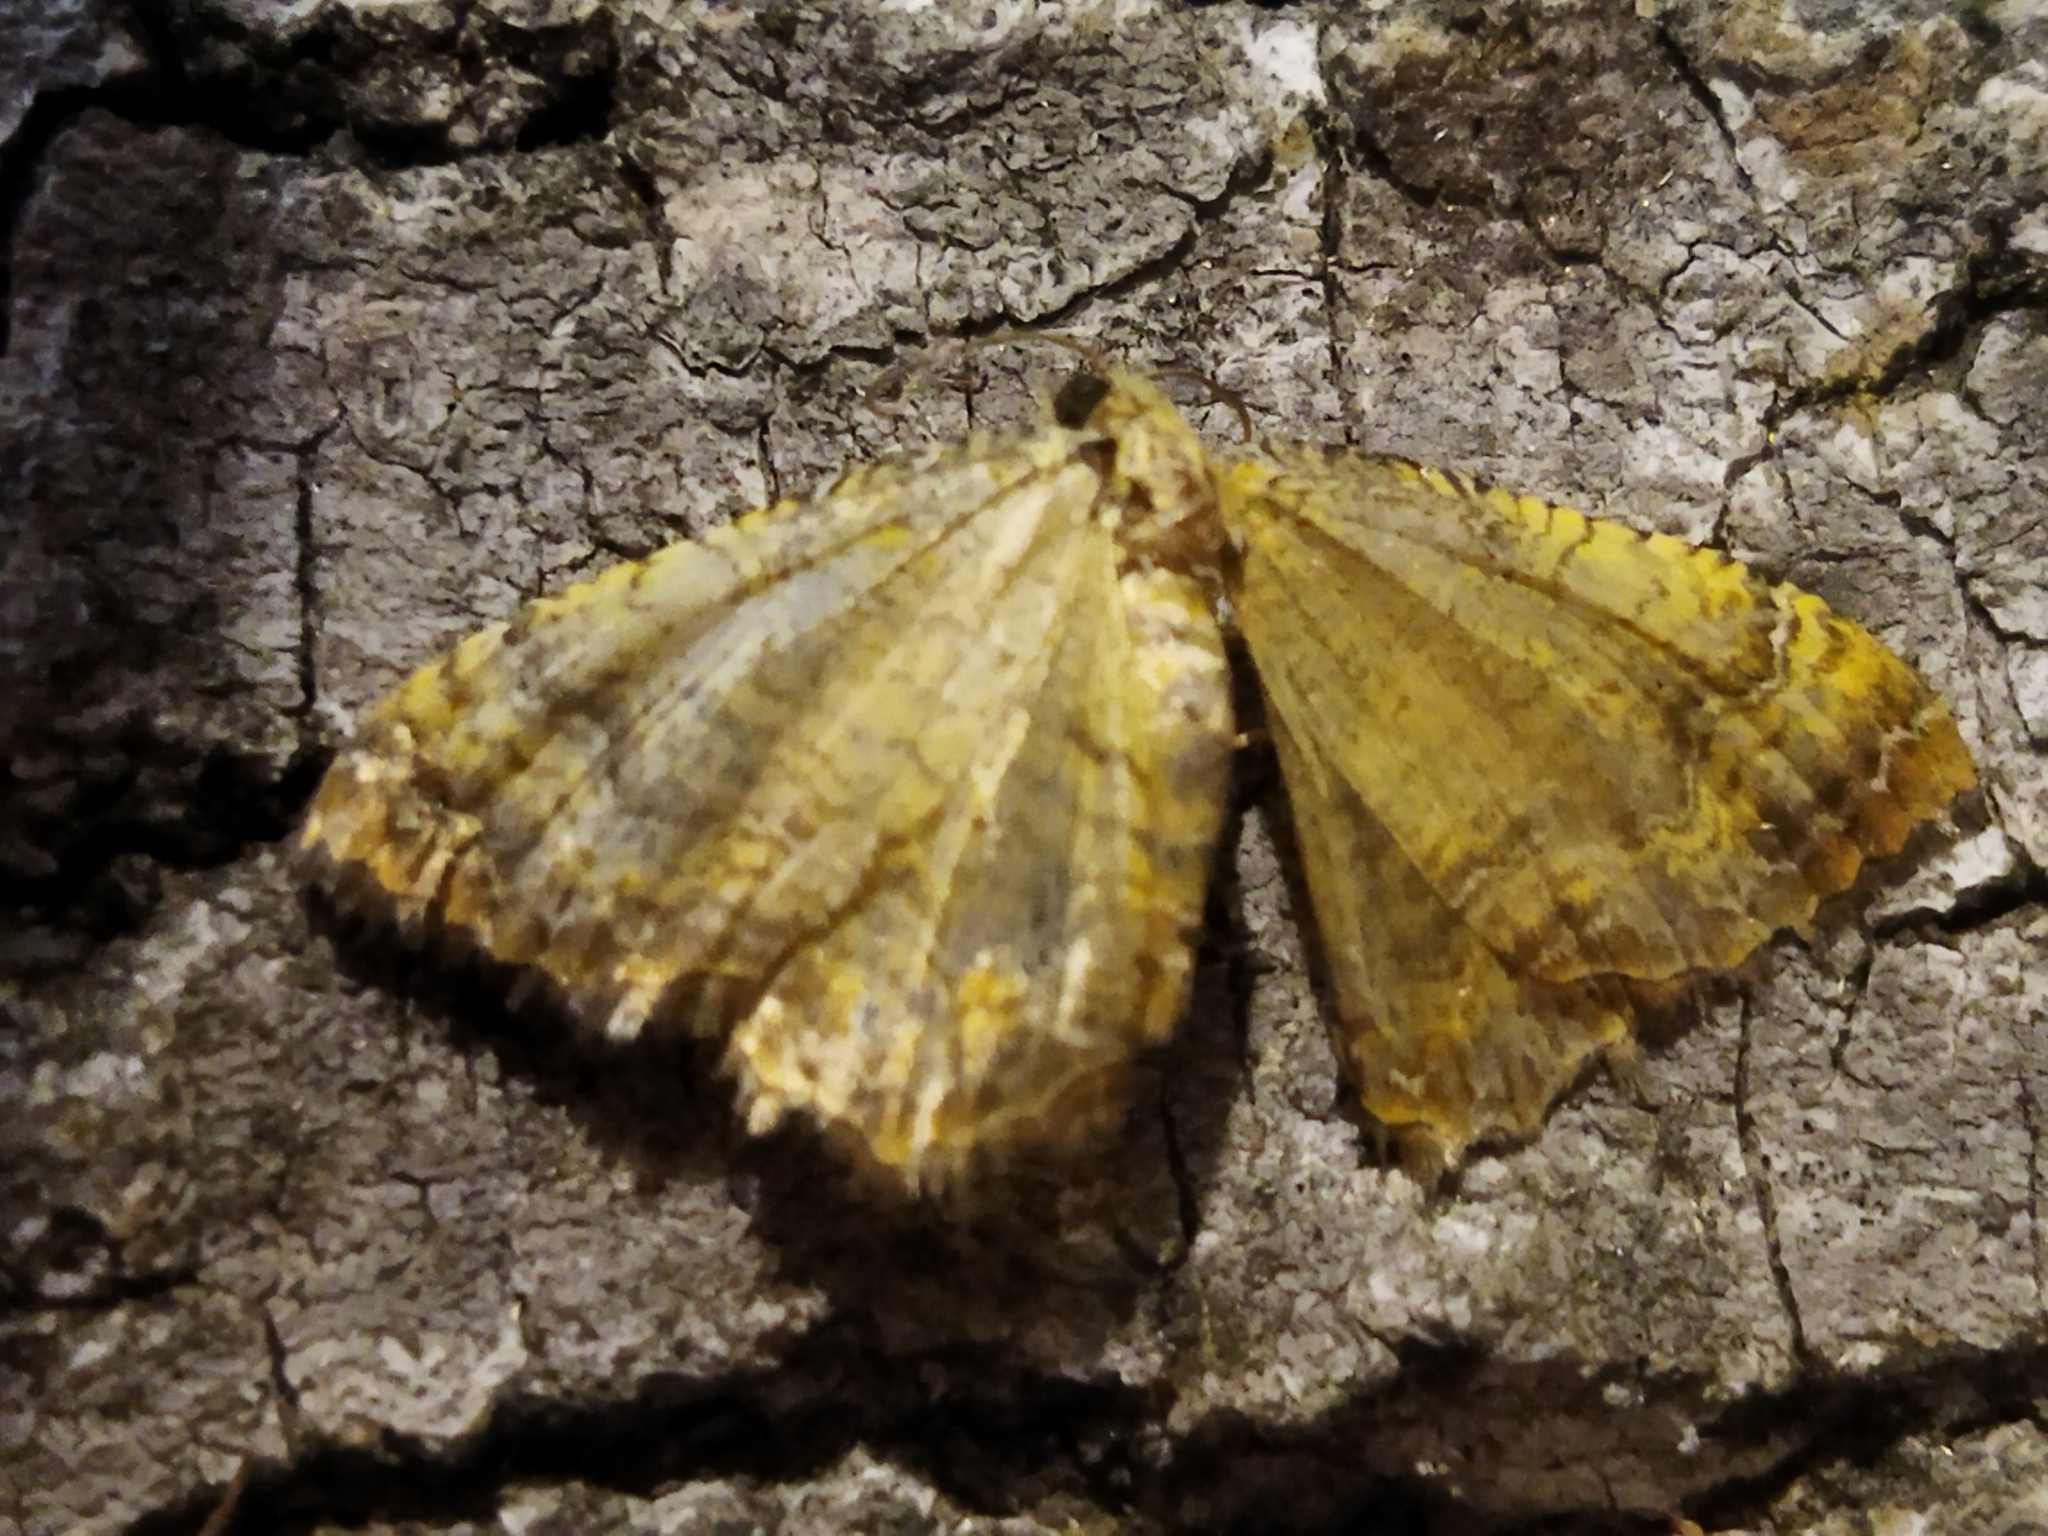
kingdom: Animalia
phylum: Arthropoda
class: Insecta
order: Lepidoptera
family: Geometridae
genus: Camptogramma
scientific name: Camptogramma bilineata
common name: Yellow shell
